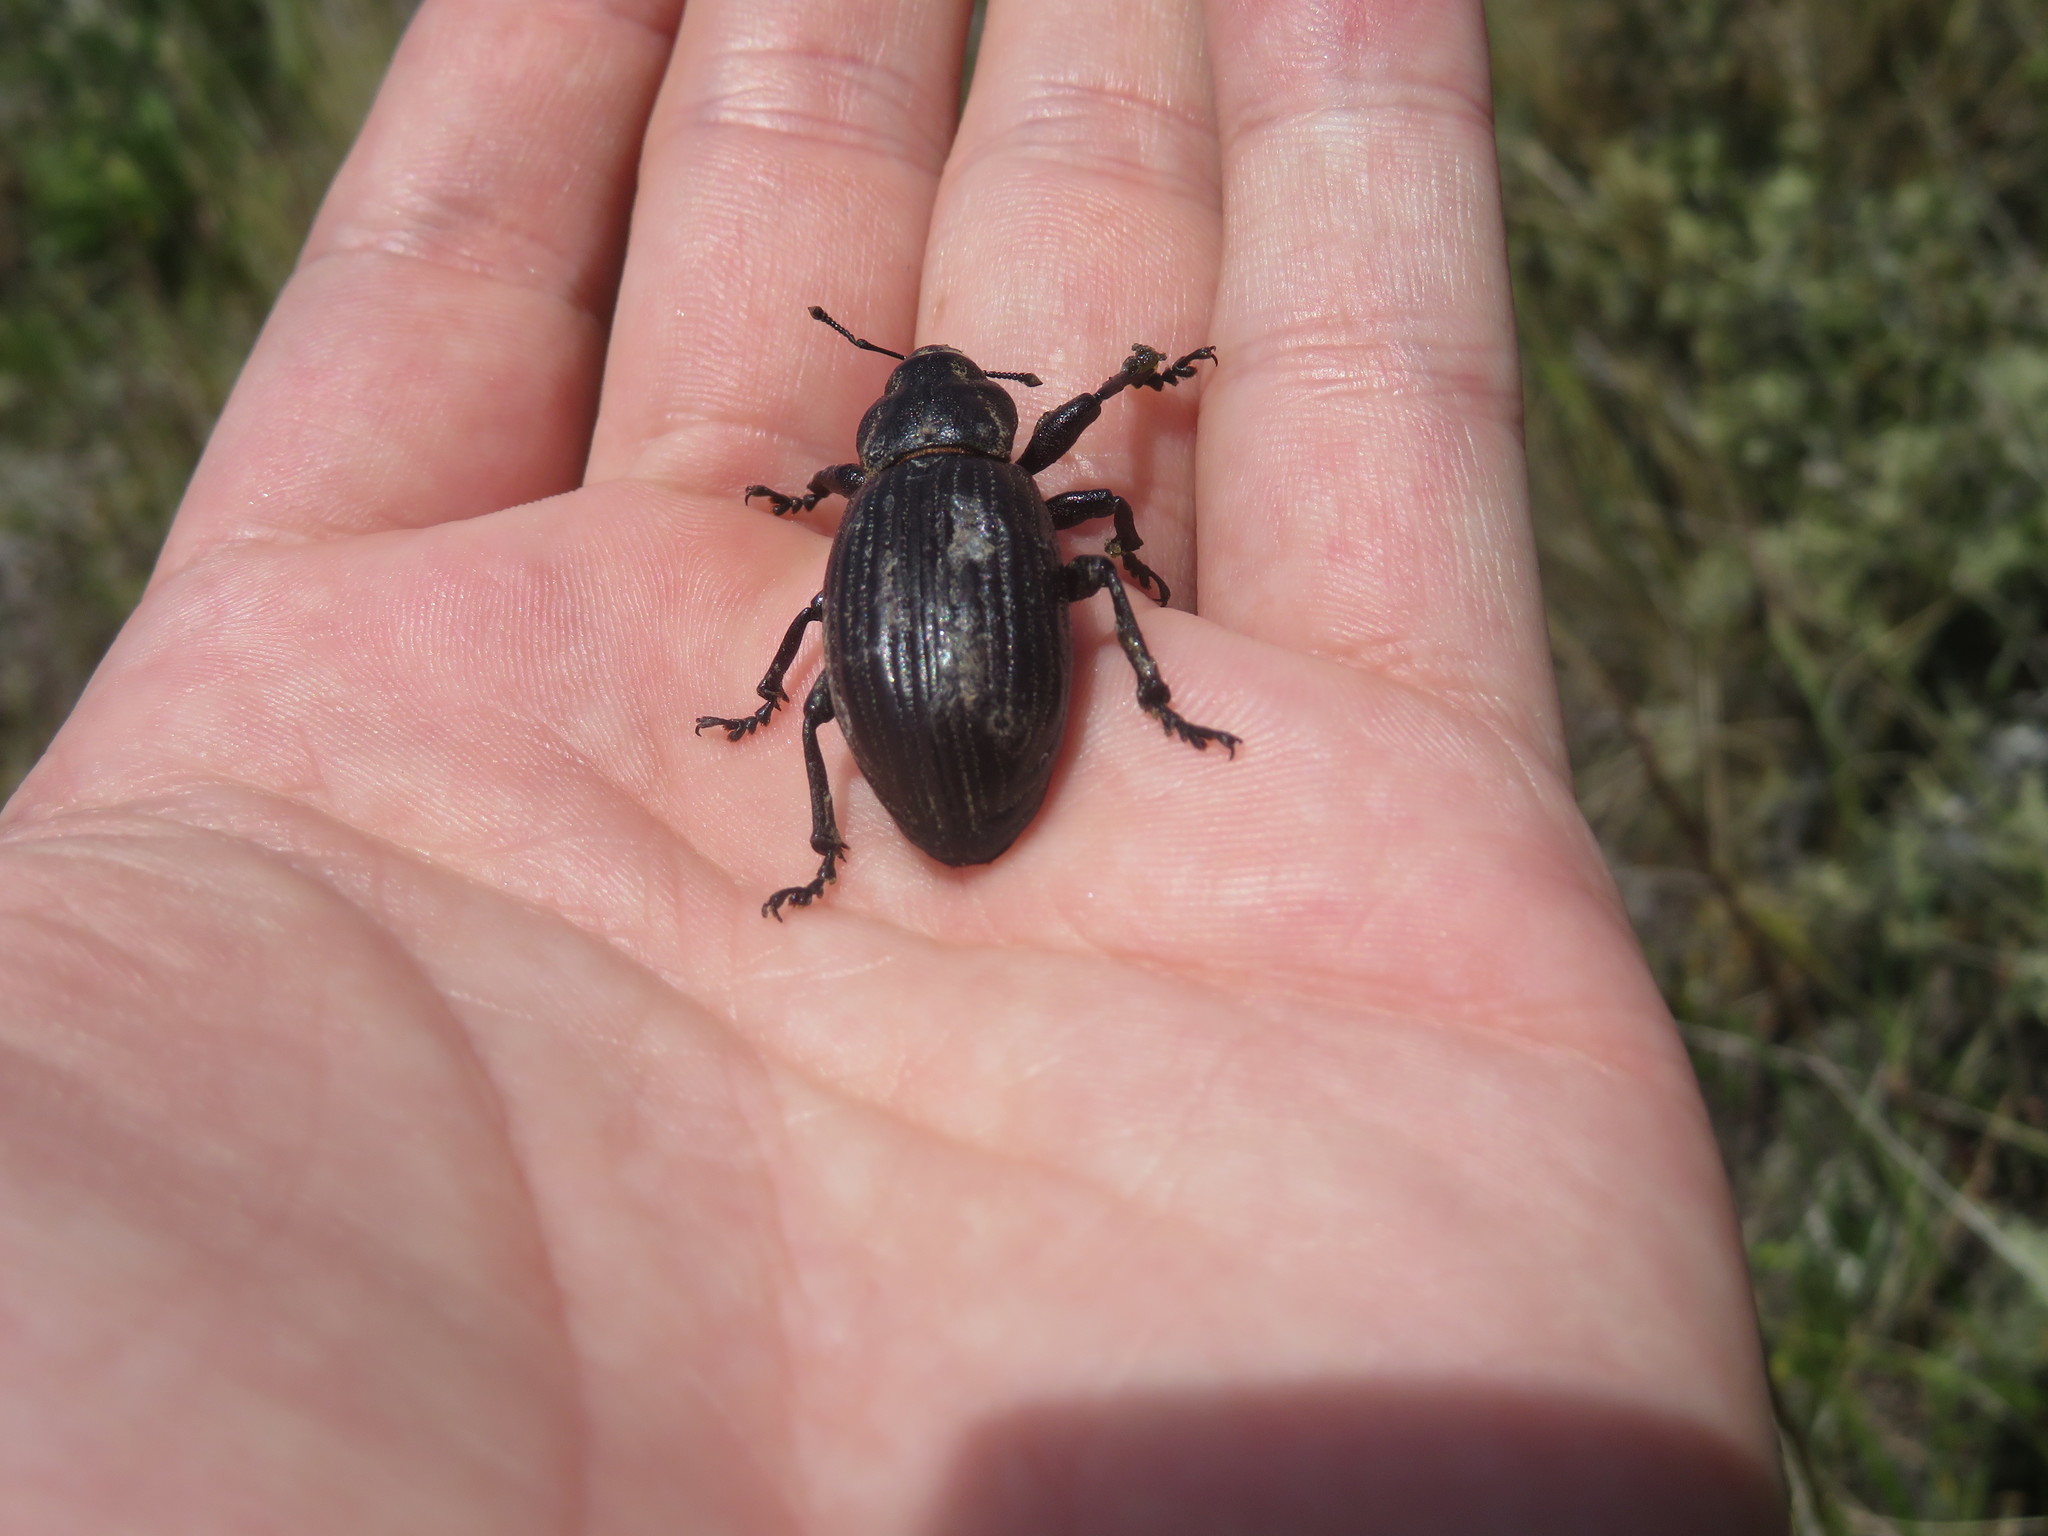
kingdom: Animalia
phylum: Arthropoda
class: Insecta
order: Coleoptera
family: Curculionidae
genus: Lyperobius
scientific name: Lyperobius huttoni
